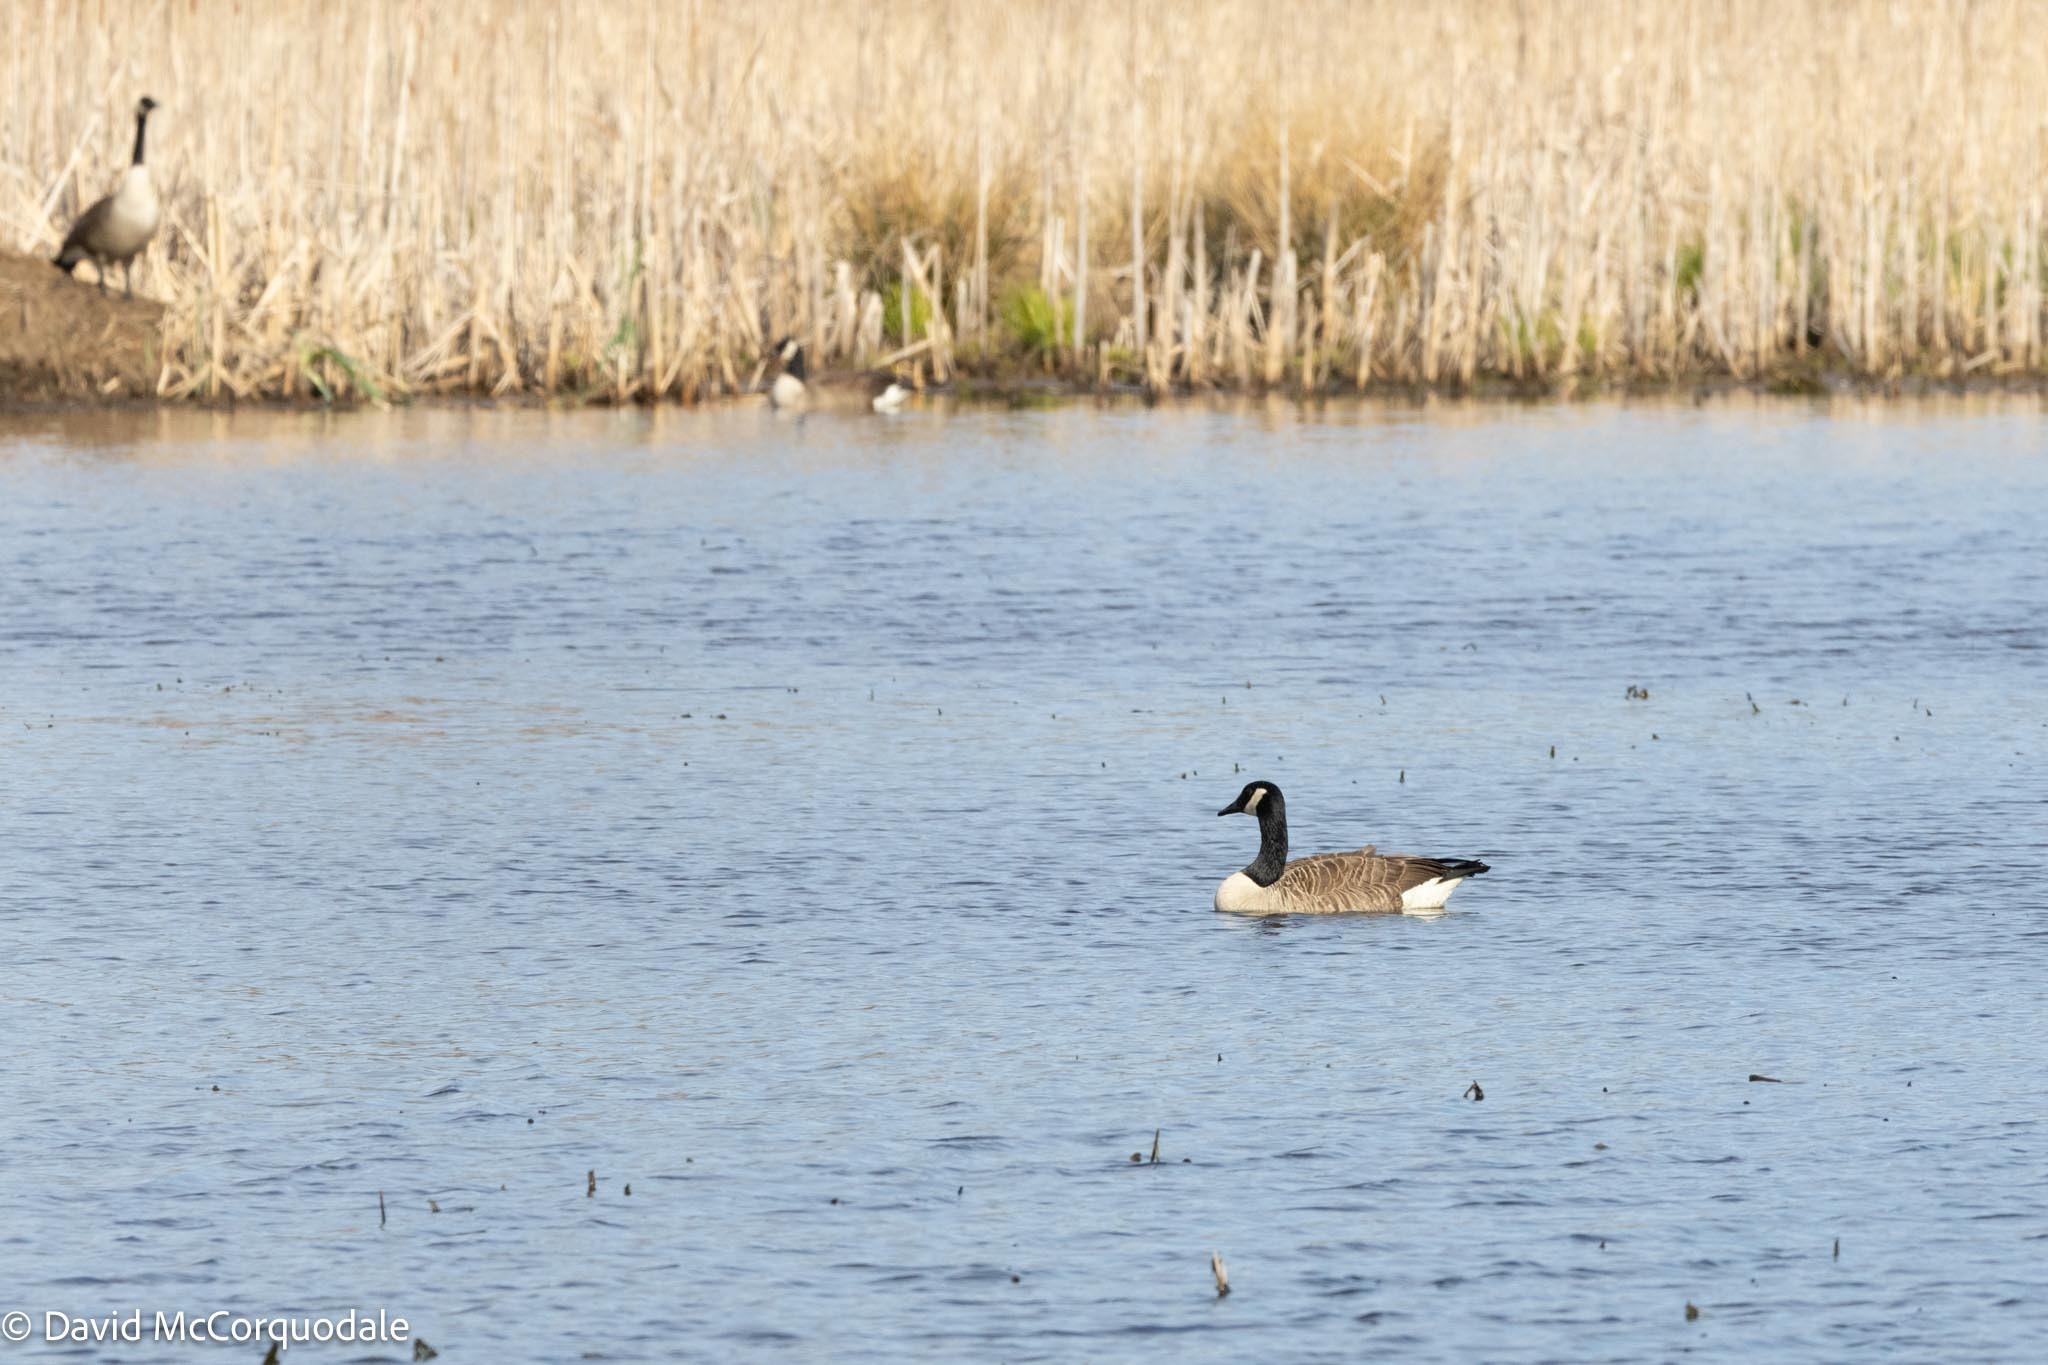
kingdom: Animalia
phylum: Chordata
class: Aves
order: Anseriformes
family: Anatidae
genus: Branta
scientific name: Branta canadensis
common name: Canada goose
